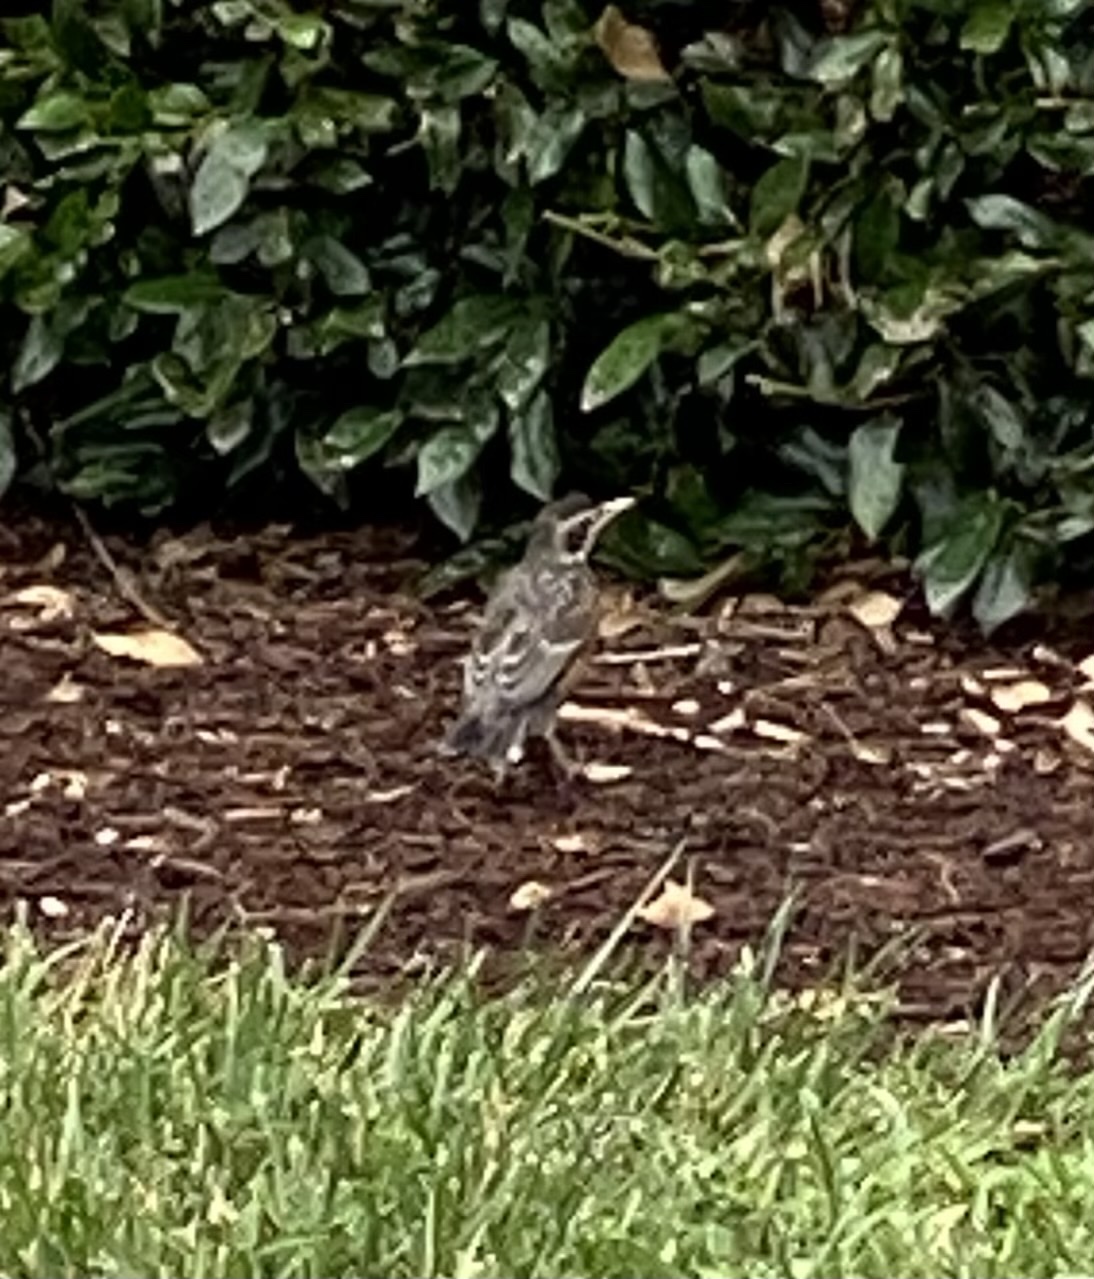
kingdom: Animalia
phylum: Chordata
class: Aves
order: Passeriformes
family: Turdidae
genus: Turdus
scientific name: Turdus migratorius
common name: American robin
